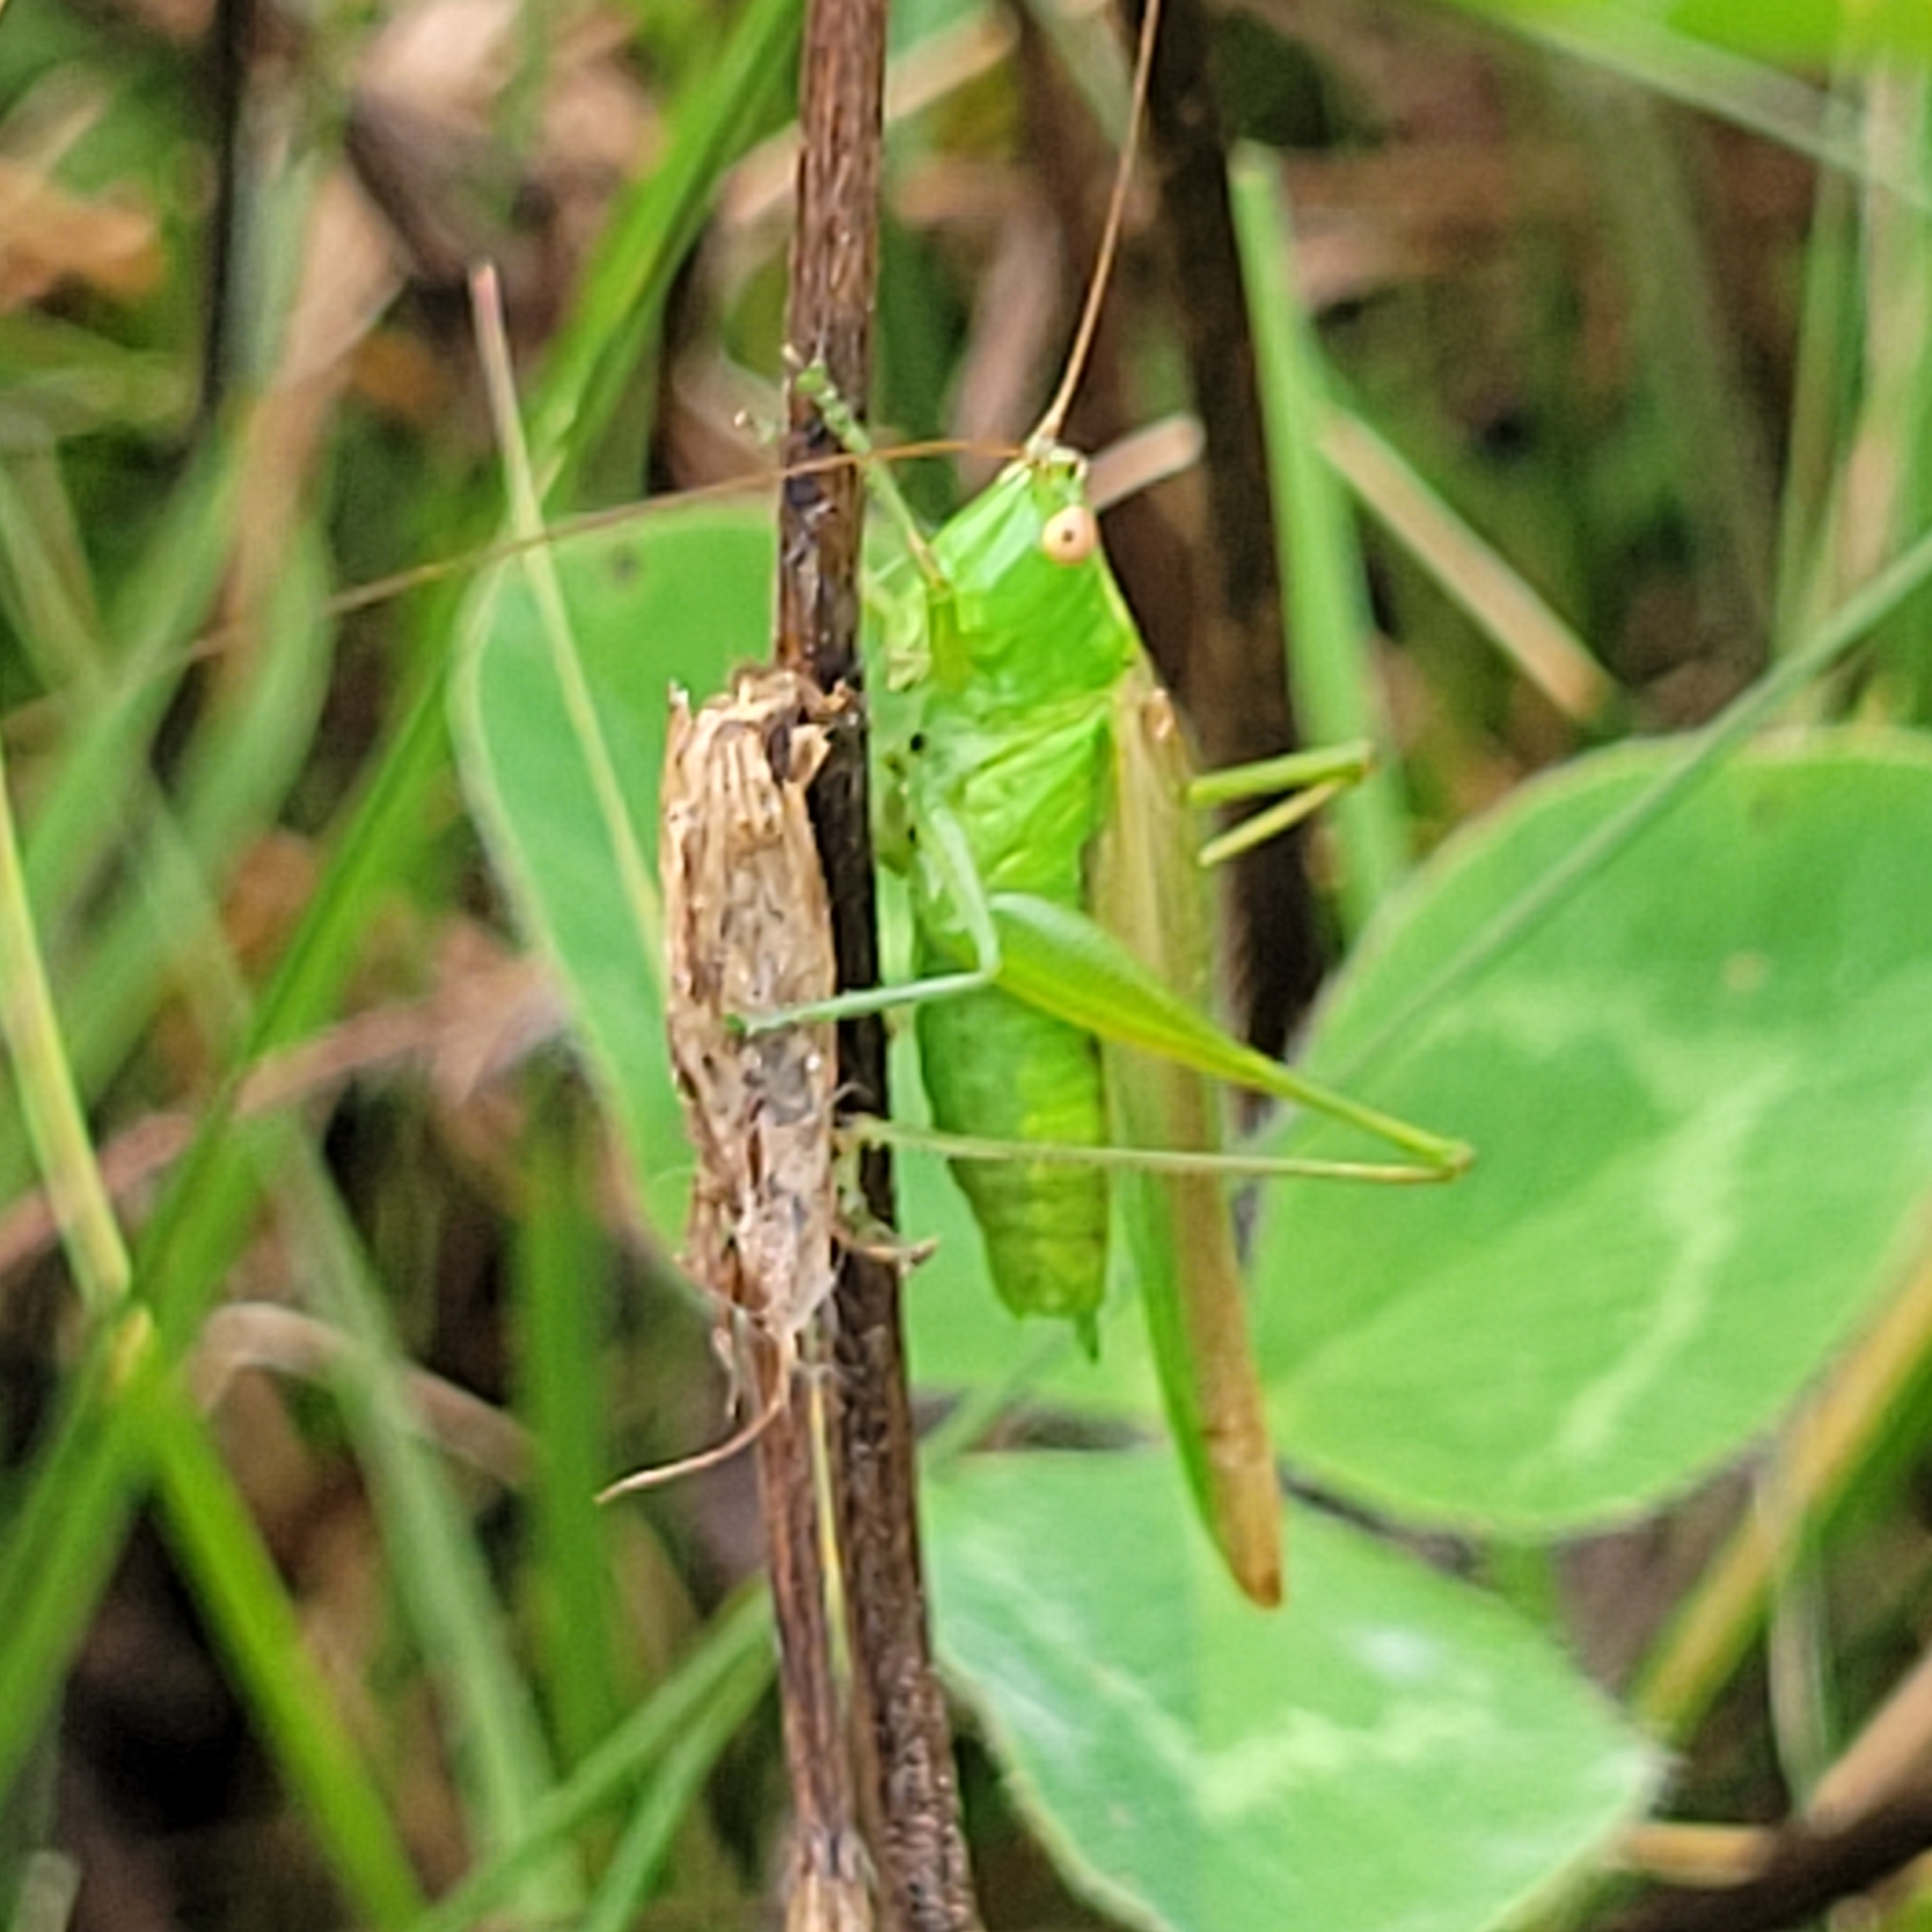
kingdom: Animalia
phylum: Arthropoda
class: Insecta
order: Orthoptera
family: Tettigoniidae
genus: Conocephalus
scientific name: Conocephalus fasciatus
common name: Slender meadow katydid
